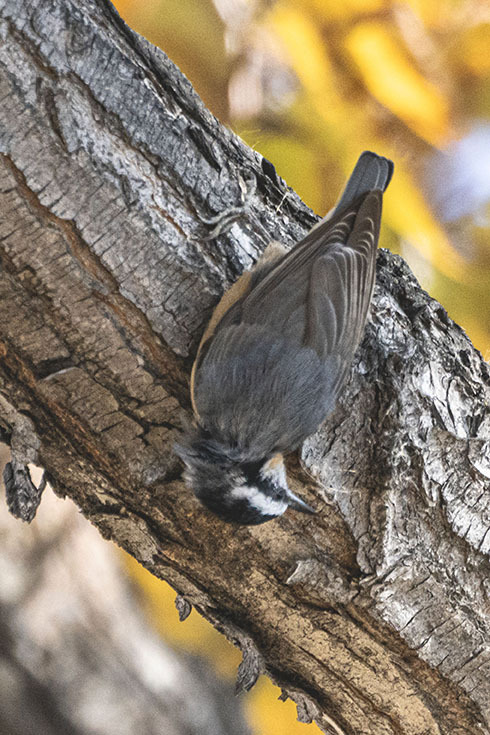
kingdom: Animalia
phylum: Chordata
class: Aves
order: Passeriformes
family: Sittidae
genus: Sitta
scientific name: Sitta canadensis
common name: Red-breasted nuthatch
